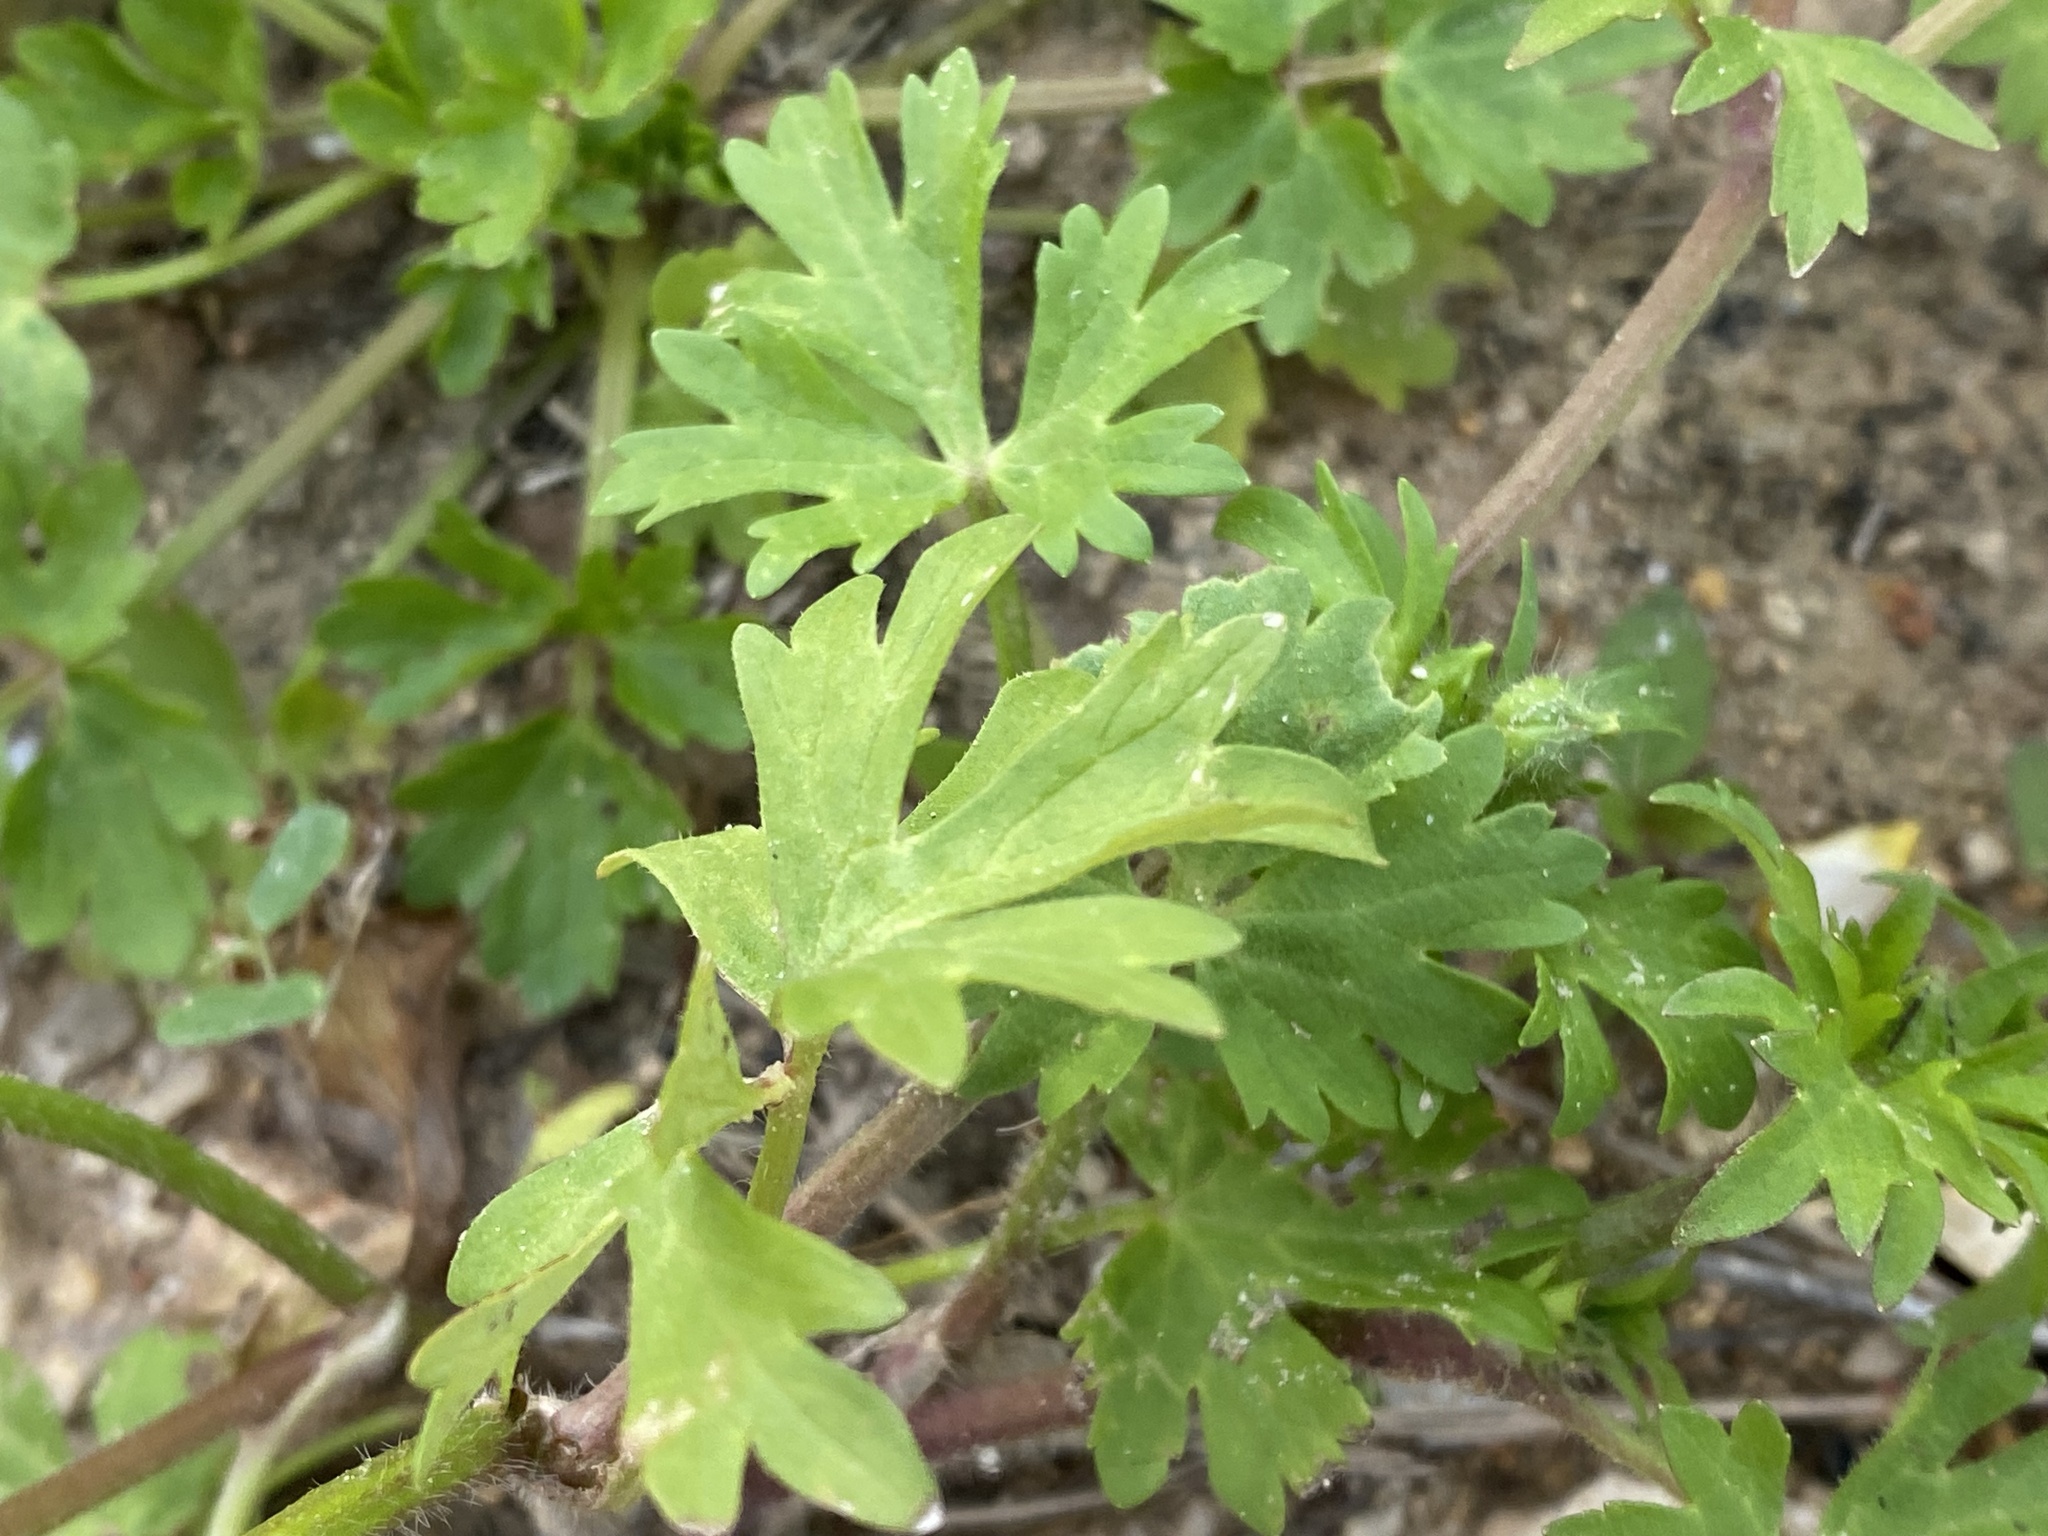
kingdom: Plantae
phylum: Tracheophyta
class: Magnoliopsida
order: Ranunculales
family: Ranunculaceae
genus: Ranunculus
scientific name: Ranunculus repens
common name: Creeping buttercup
